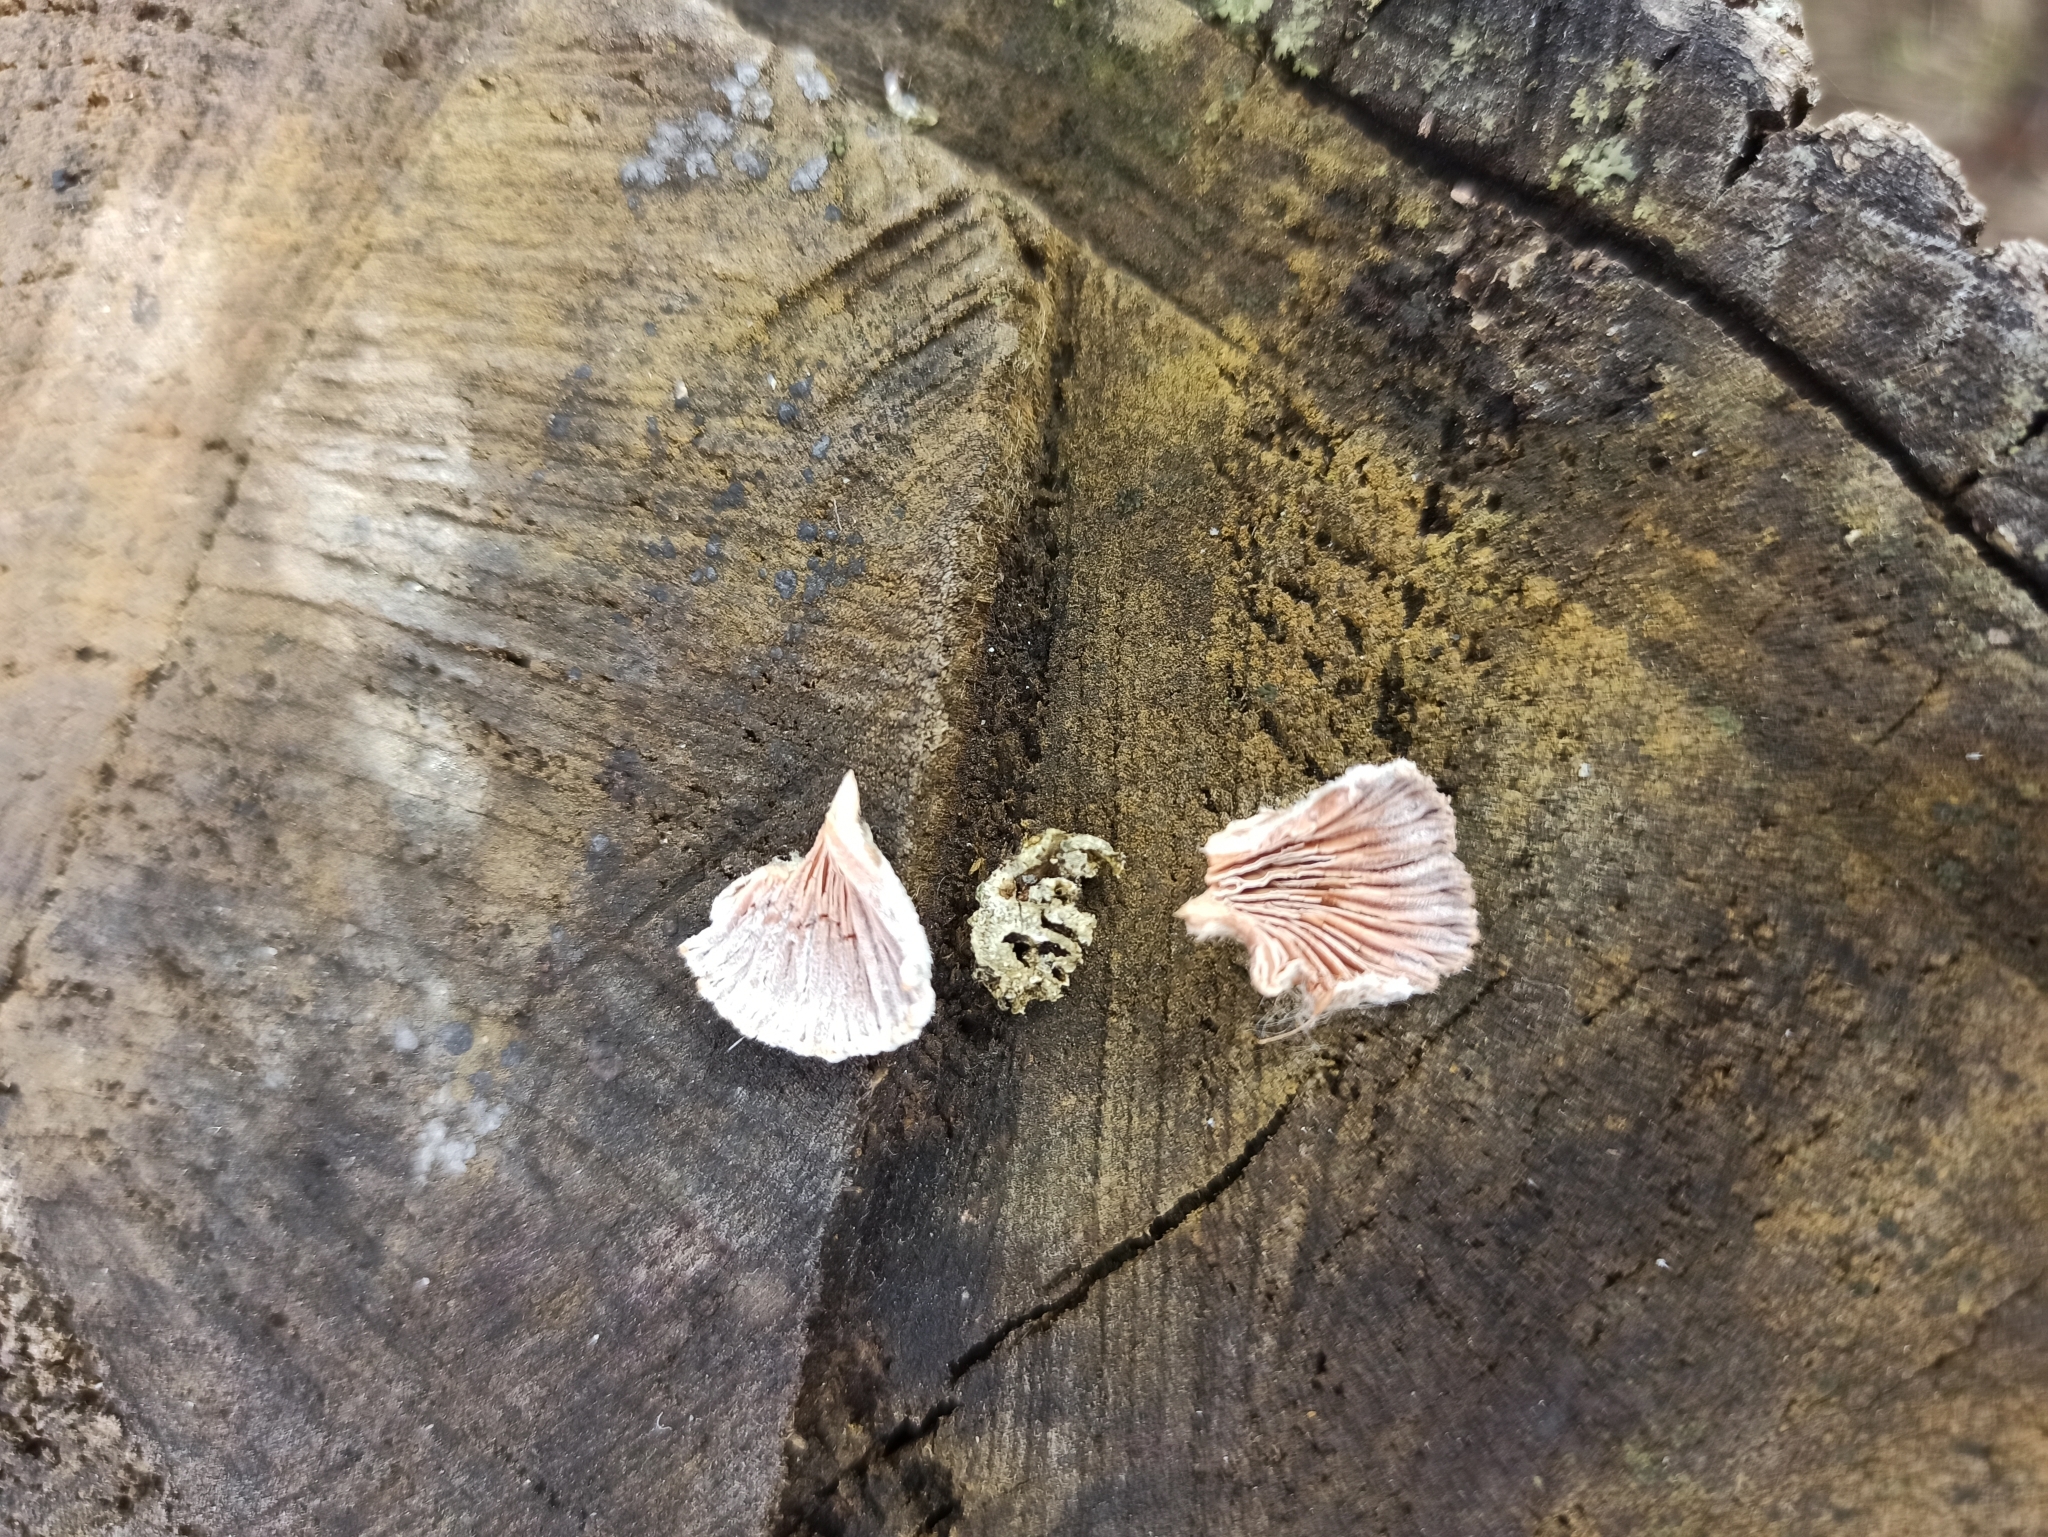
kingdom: Fungi
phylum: Basidiomycota
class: Agaricomycetes
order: Agaricales
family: Schizophyllaceae
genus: Schizophyllum
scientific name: Schizophyllum commune
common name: Common porecrust
